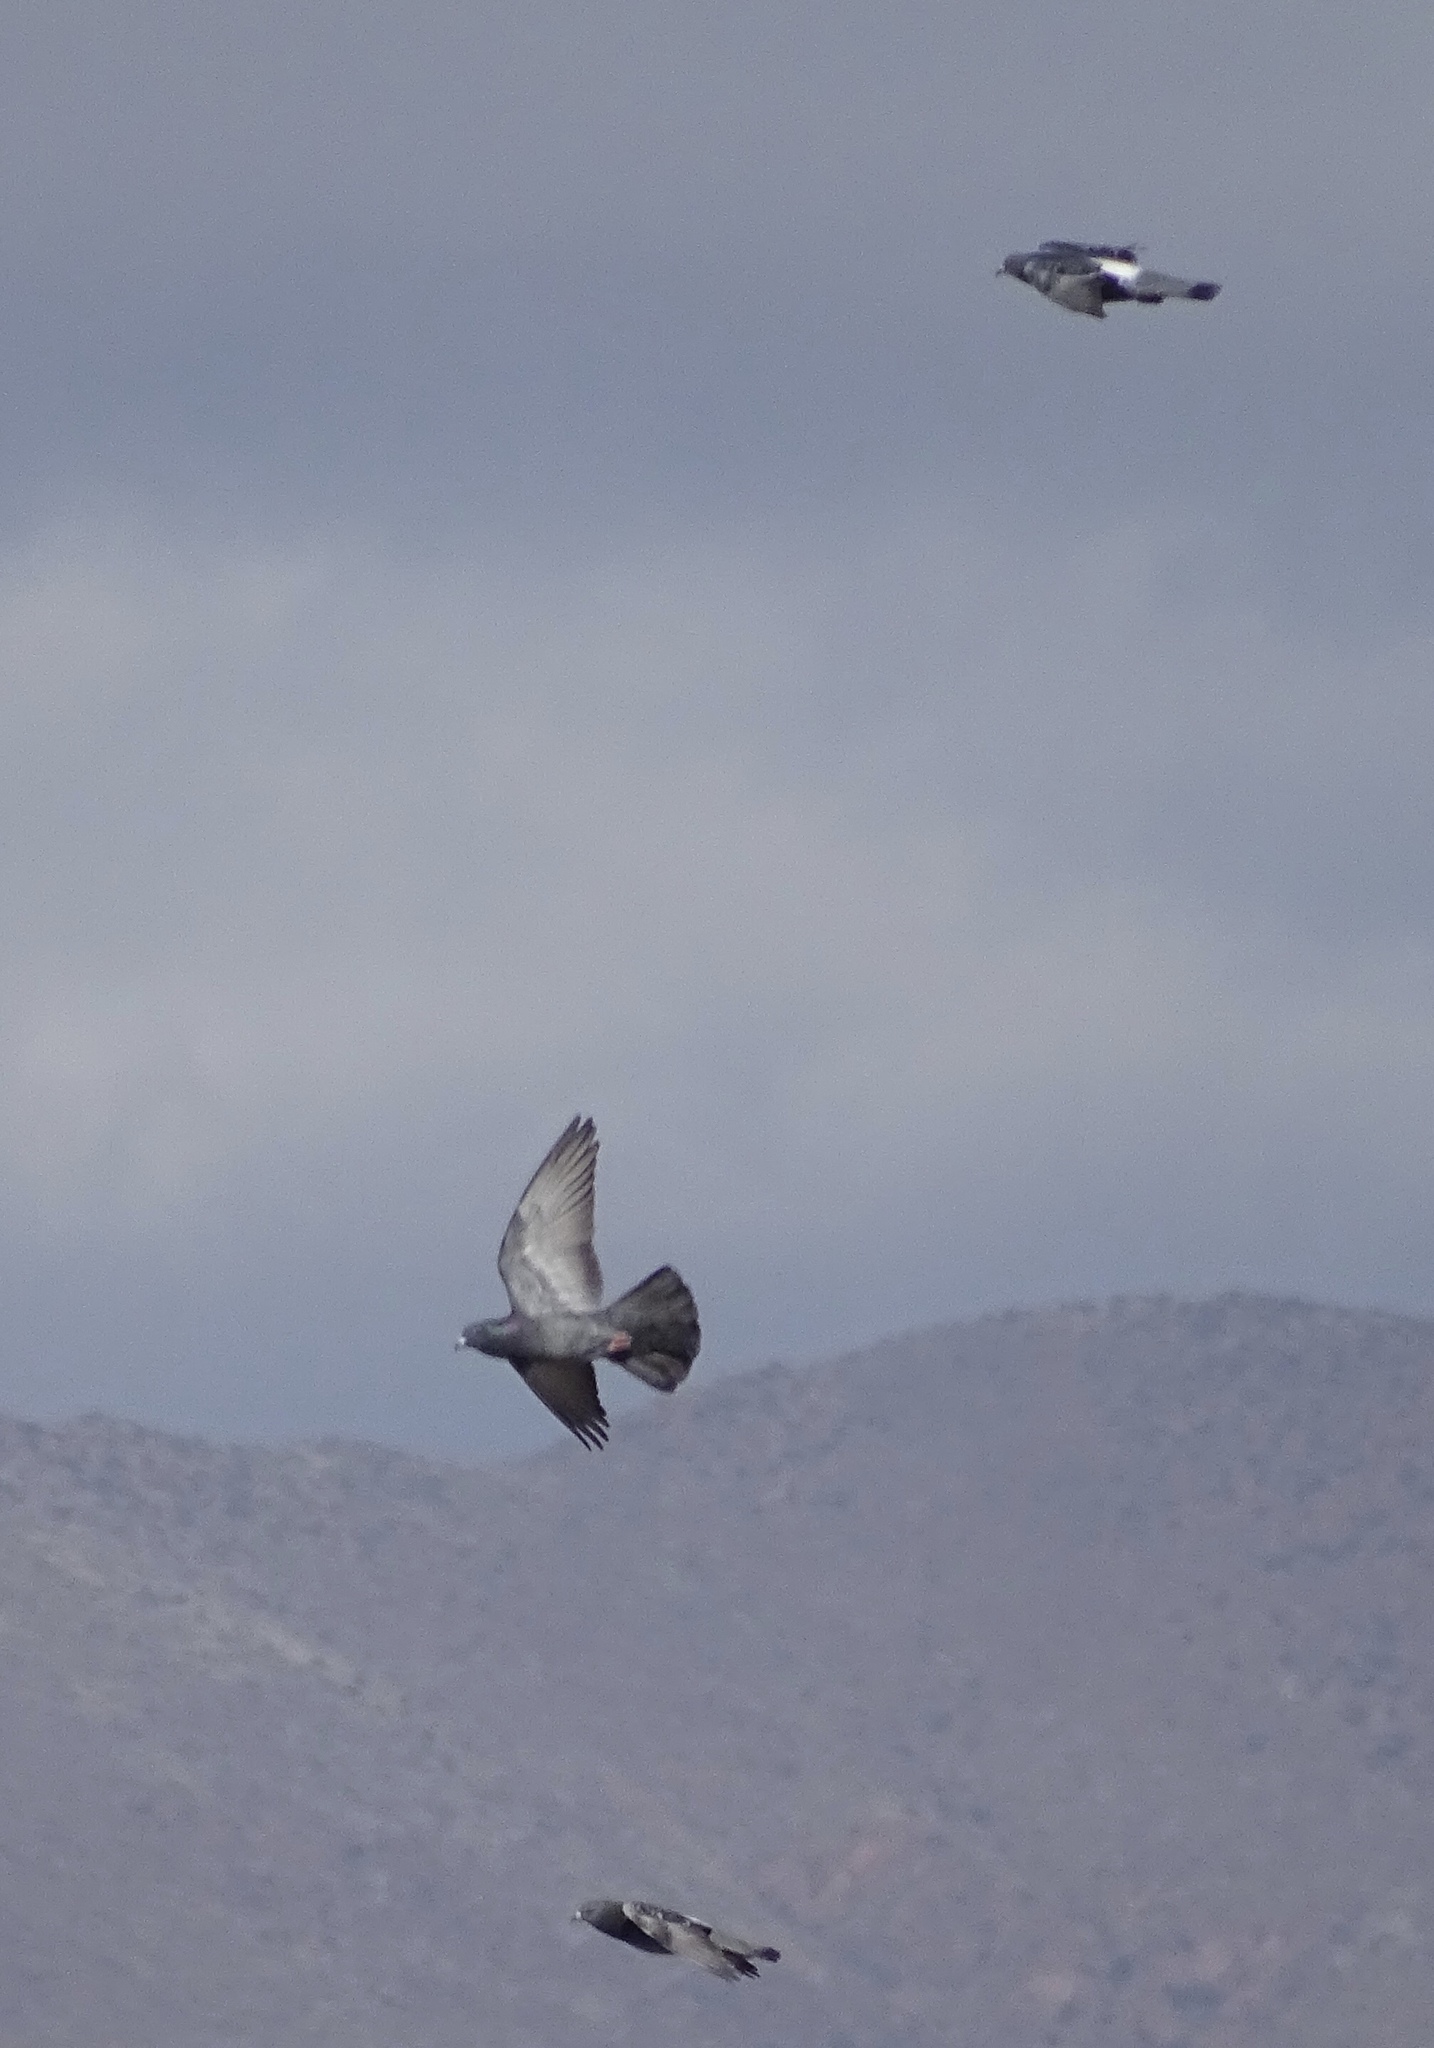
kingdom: Animalia
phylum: Chordata
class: Aves
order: Columbiformes
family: Columbidae
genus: Columba
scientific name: Columba livia
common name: Rock pigeon
